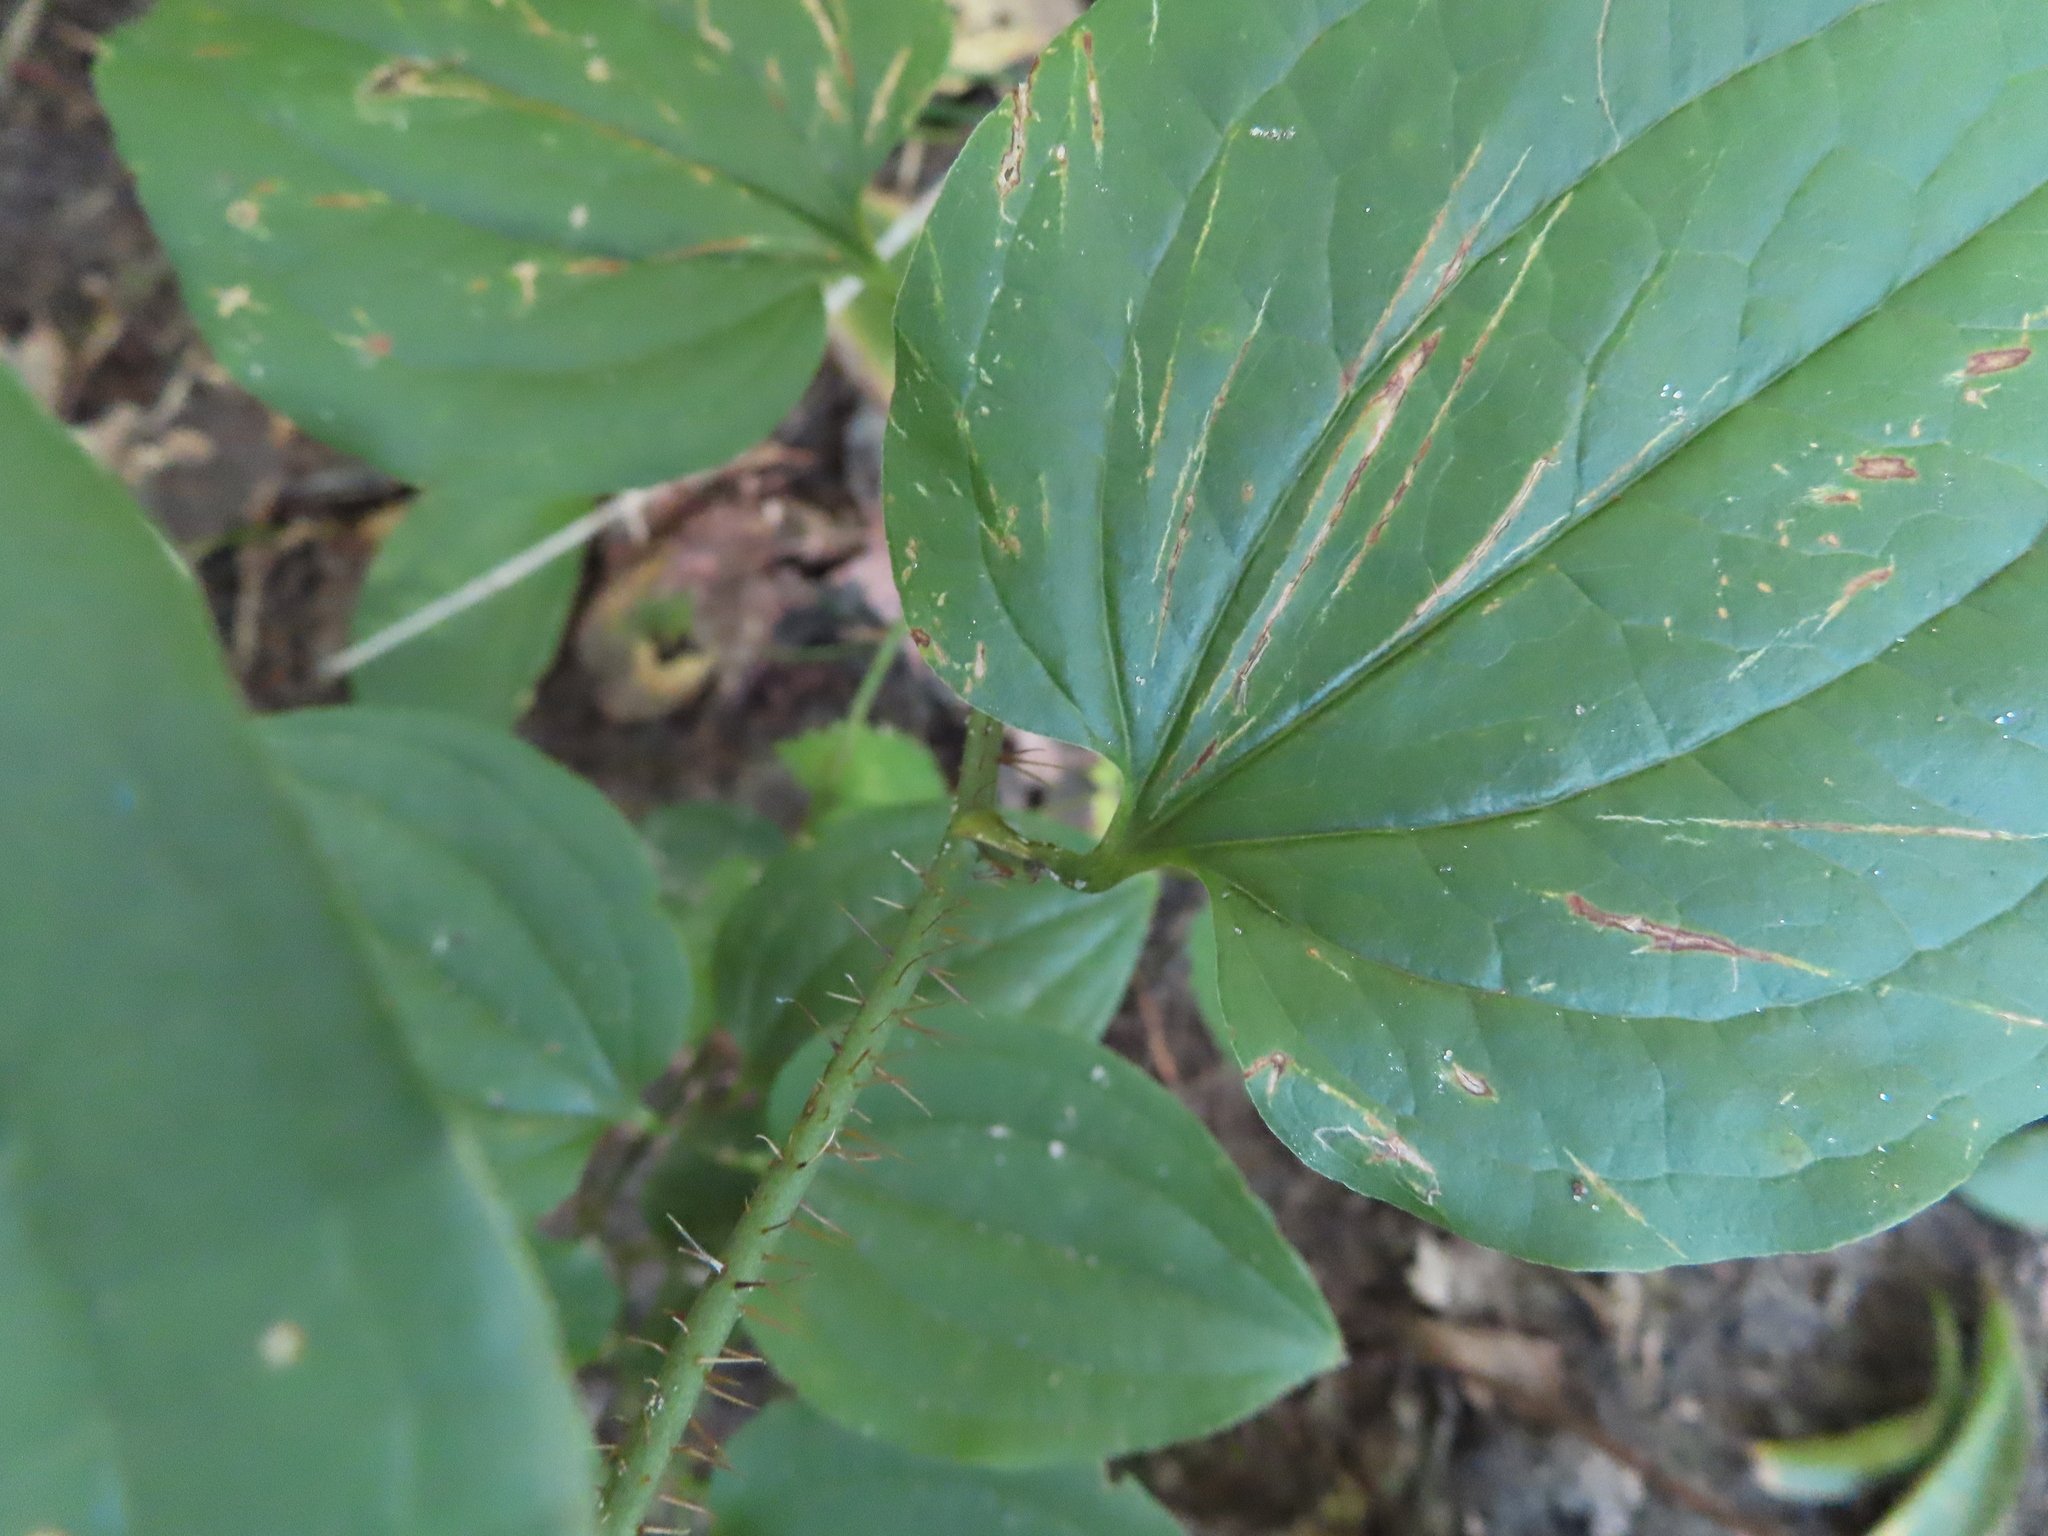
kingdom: Plantae
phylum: Tracheophyta
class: Liliopsida
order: Liliales
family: Smilacaceae
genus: Smilax
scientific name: Smilax tamnoides
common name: Hellfetter
